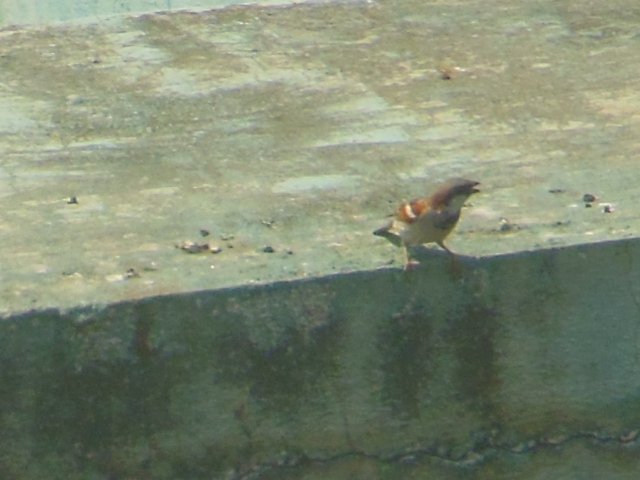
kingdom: Animalia
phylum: Chordata
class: Aves
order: Passeriformes
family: Passeridae
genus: Passer
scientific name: Passer domesticus
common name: House sparrow
